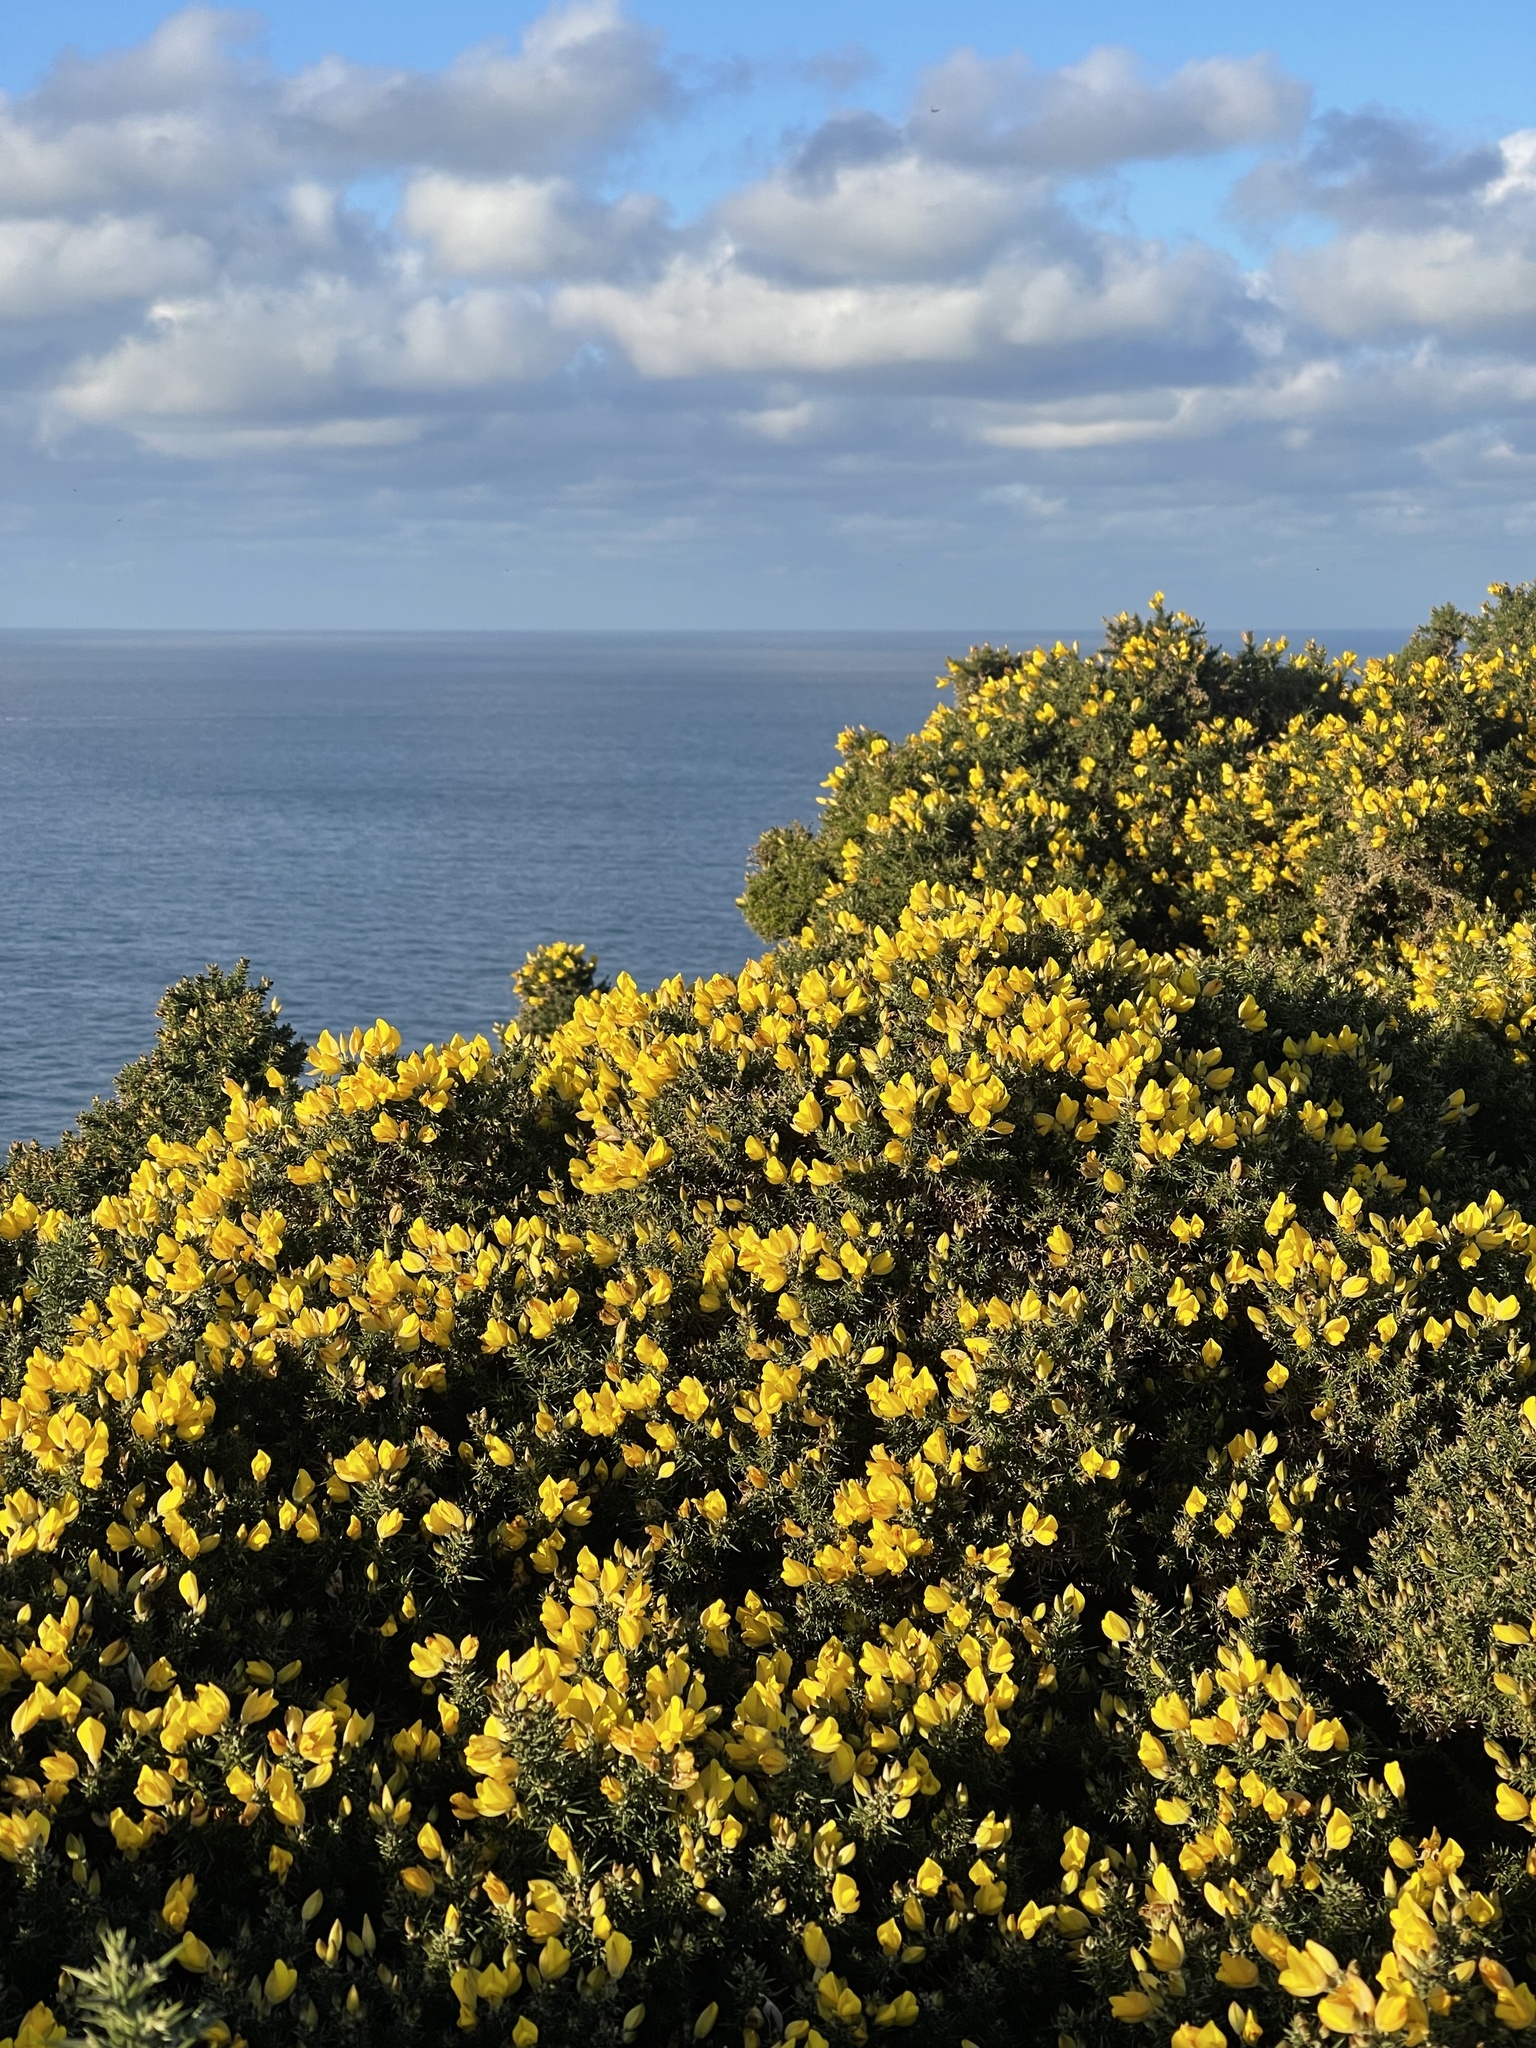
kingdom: Plantae
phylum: Tracheophyta
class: Magnoliopsida
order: Fabales
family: Fabaceae
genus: Ulex
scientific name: Ulex europaeus
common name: Common gorse
